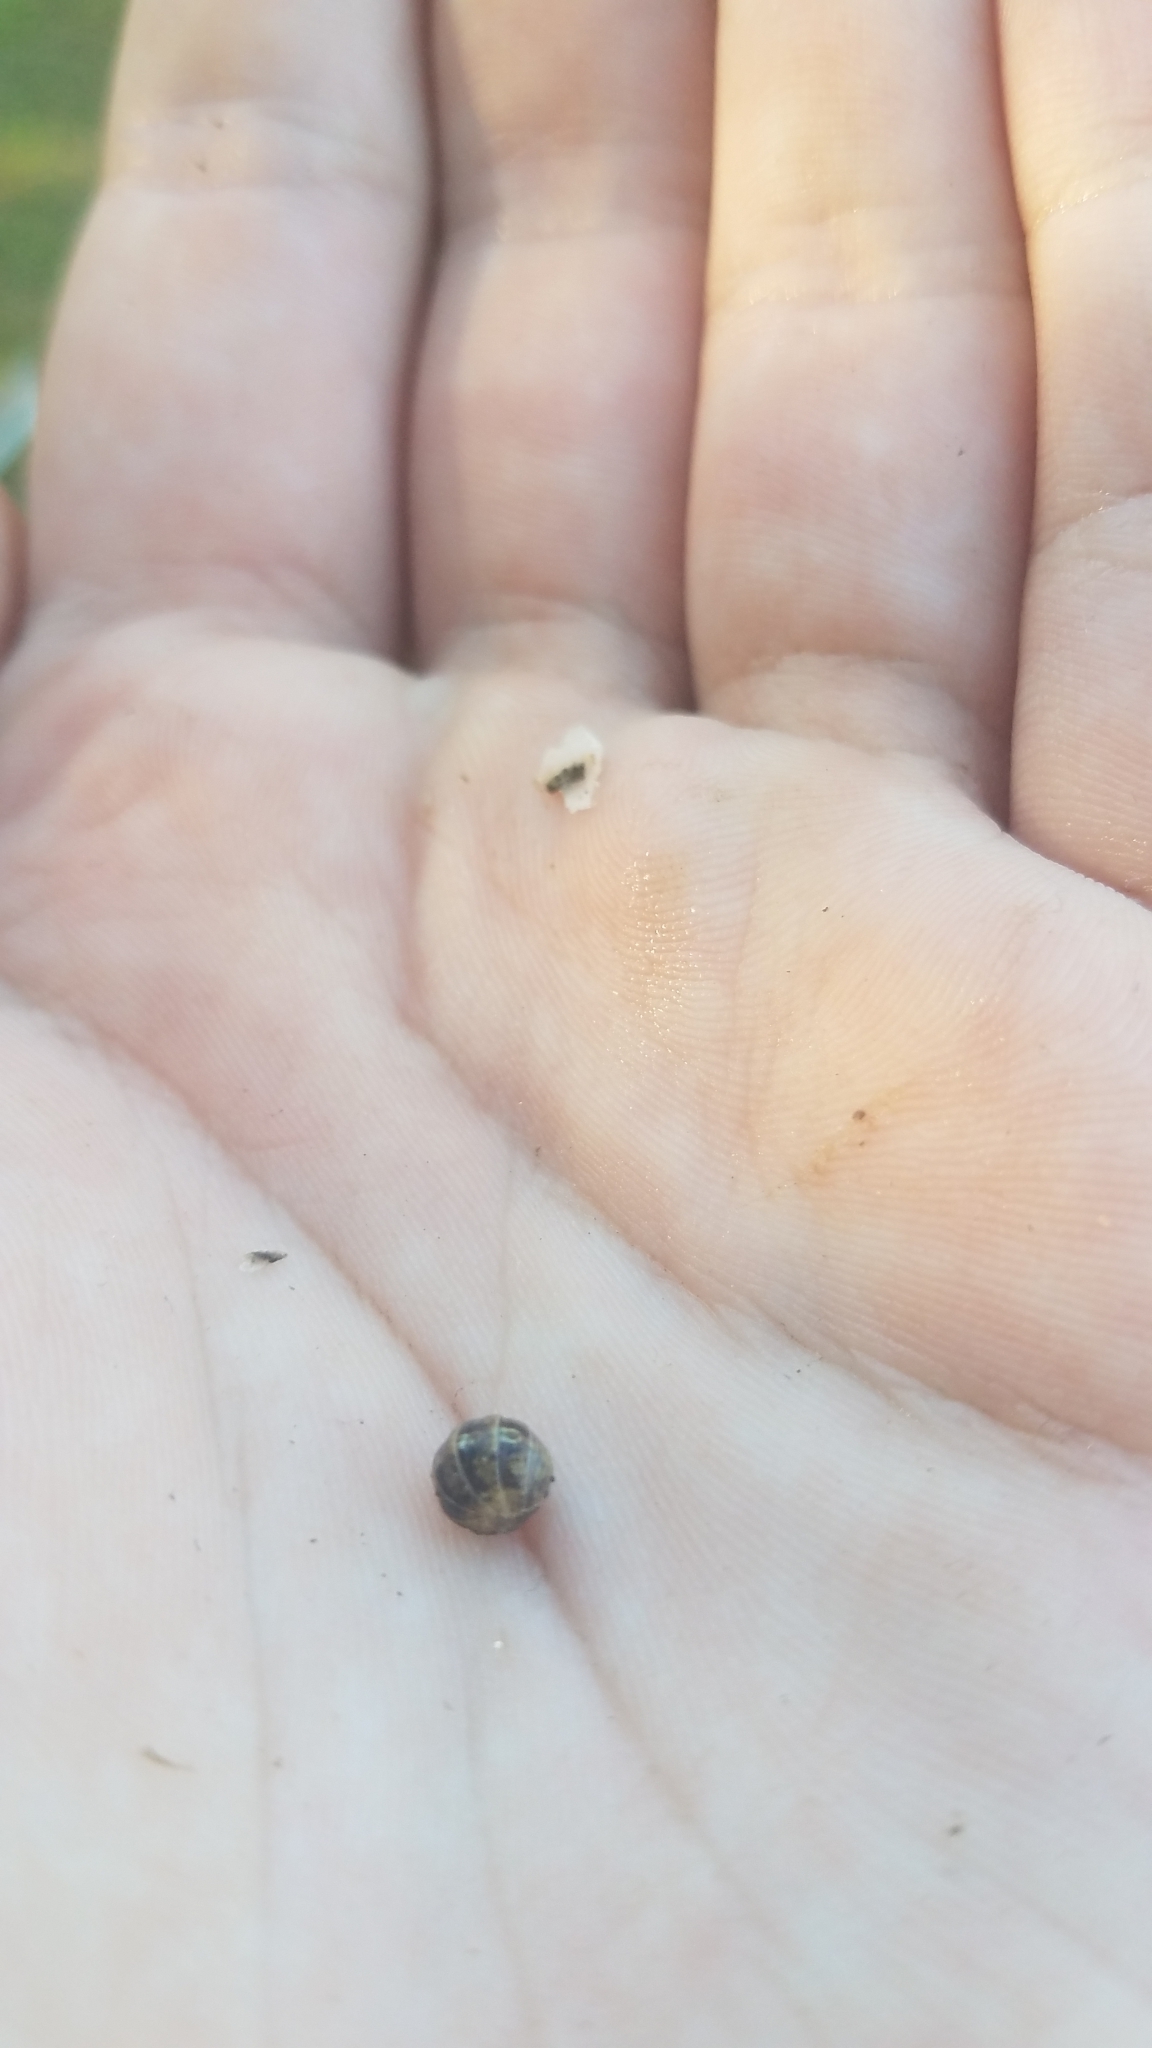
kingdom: Animalia
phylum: Arthropoda
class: Malacostraca
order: Isopoda
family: Armadillidiidae
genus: Armadillidium
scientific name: Armadillidium vulgare
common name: Common pill woodlouse
